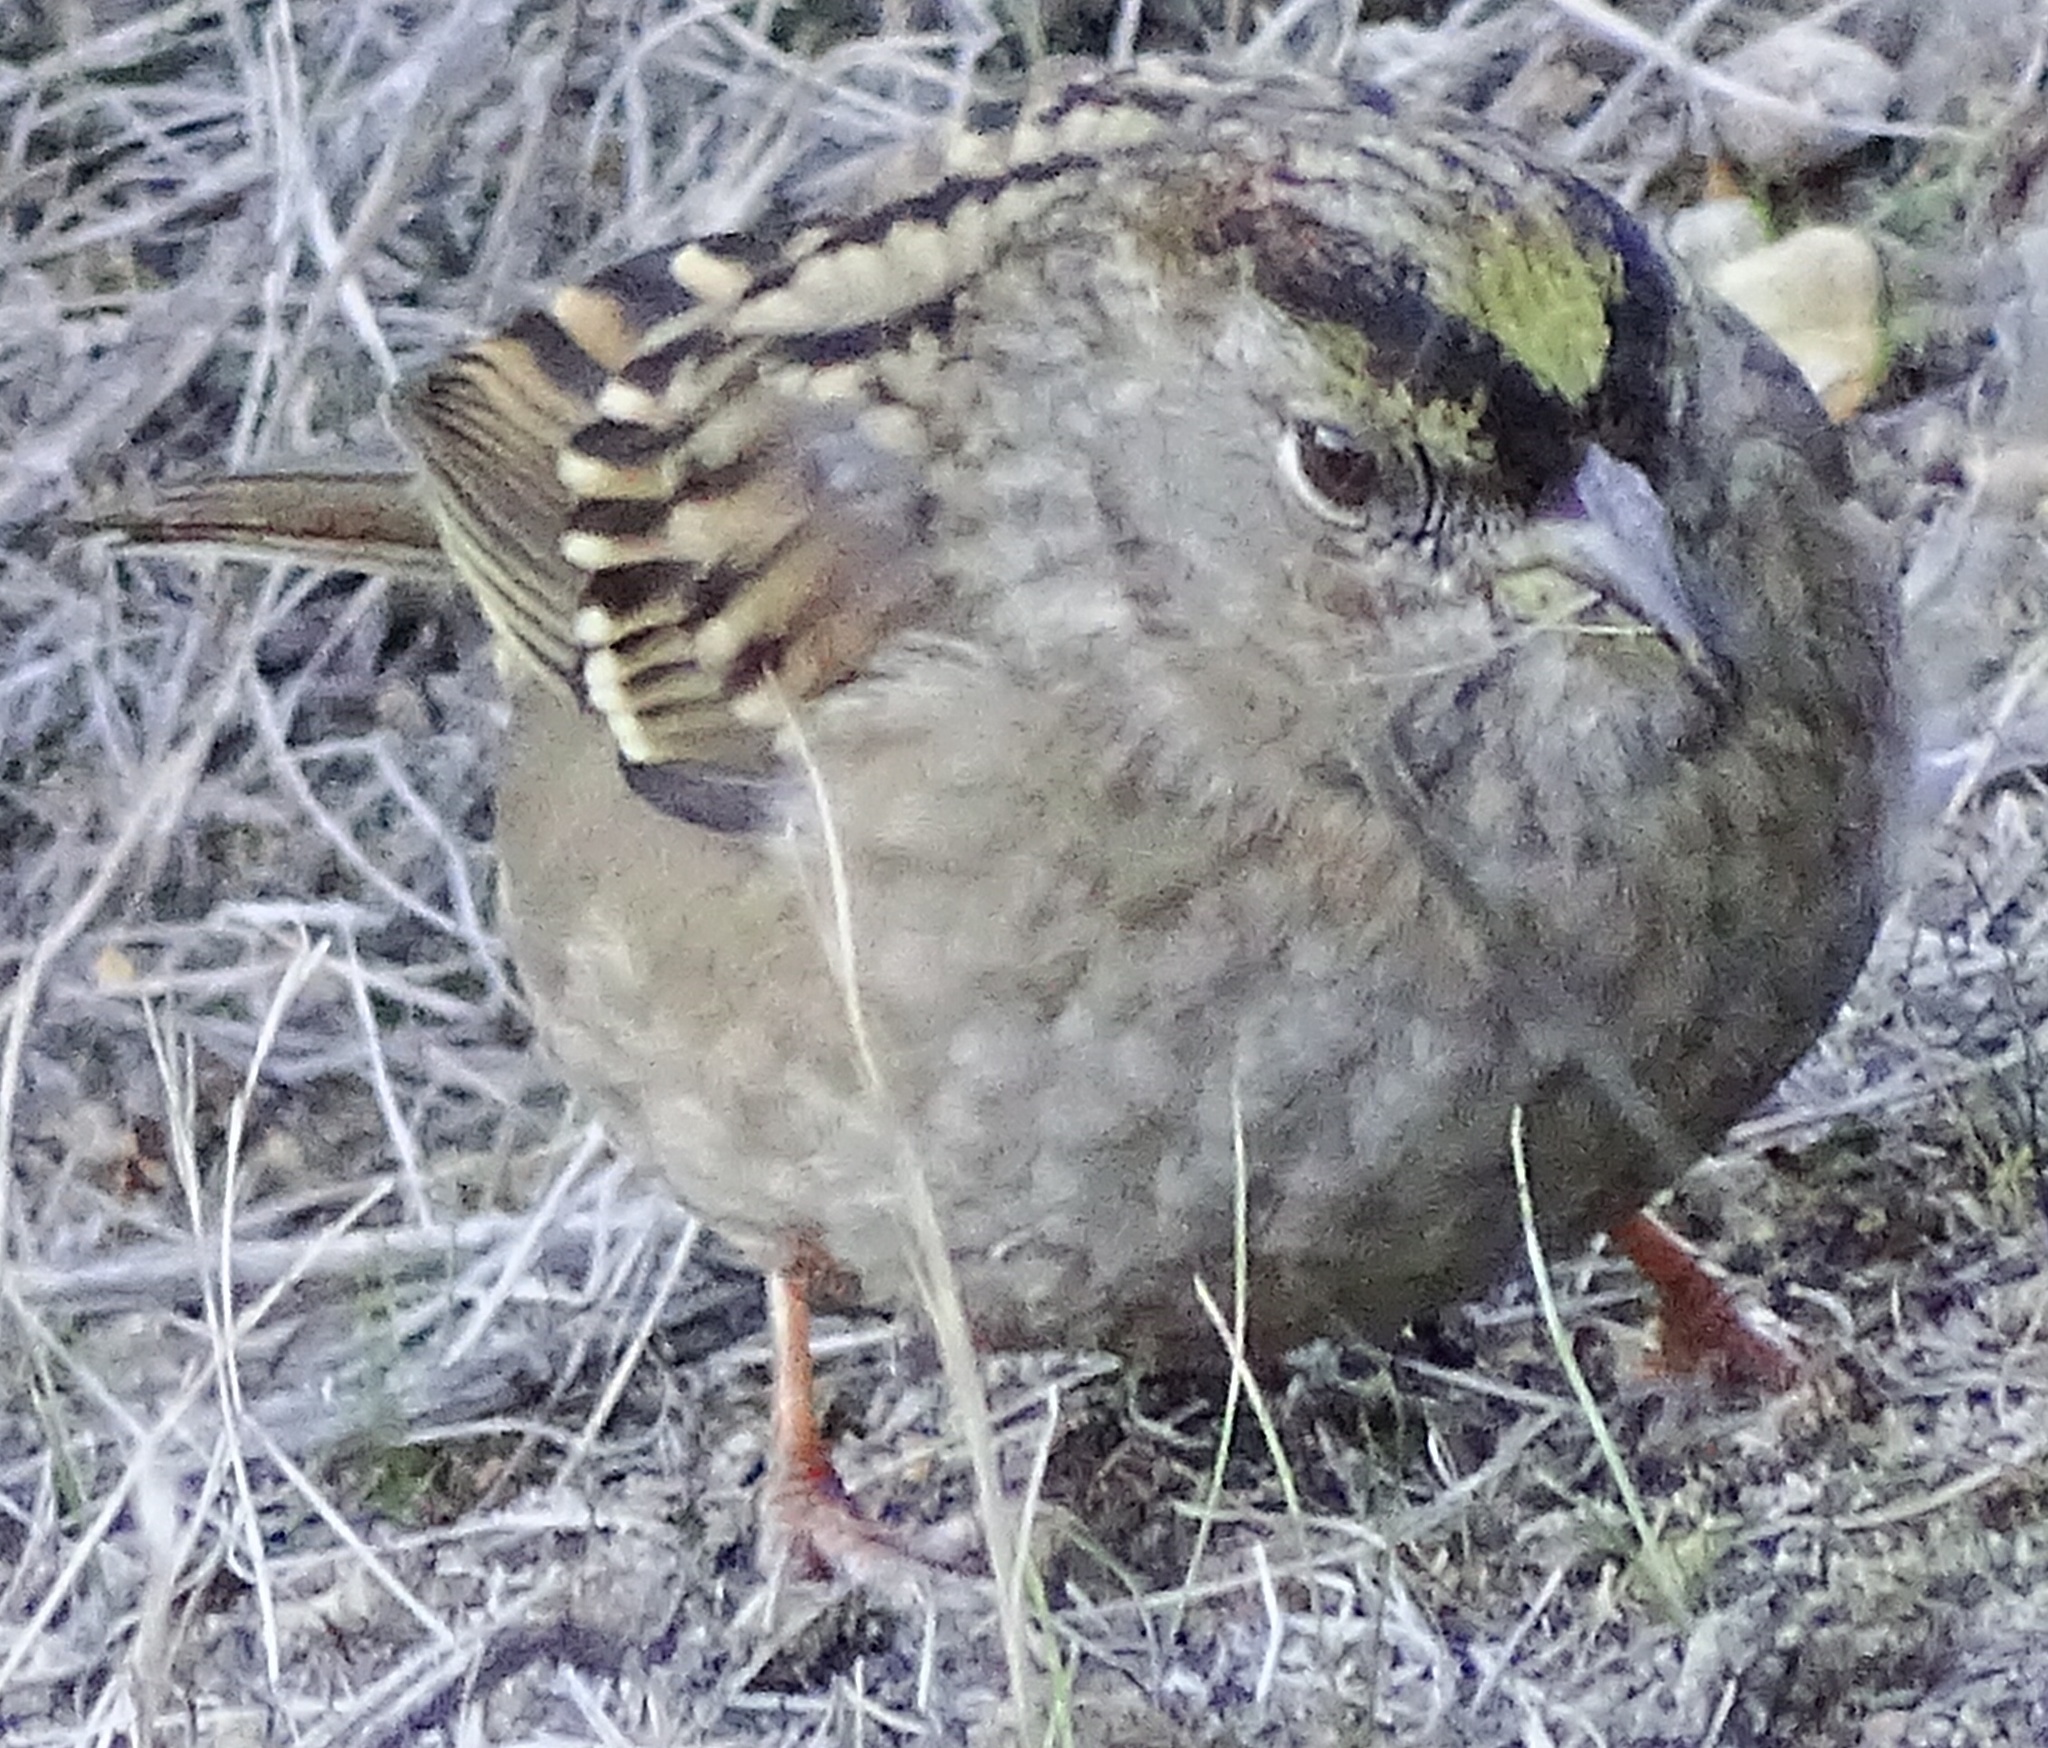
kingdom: Animalia
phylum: Chordata
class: Aves
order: Passeriformes
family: Passerellidae
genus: Zonotrichia
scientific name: Zonotrichia atricapilla
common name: Golden-crowned sparrow
